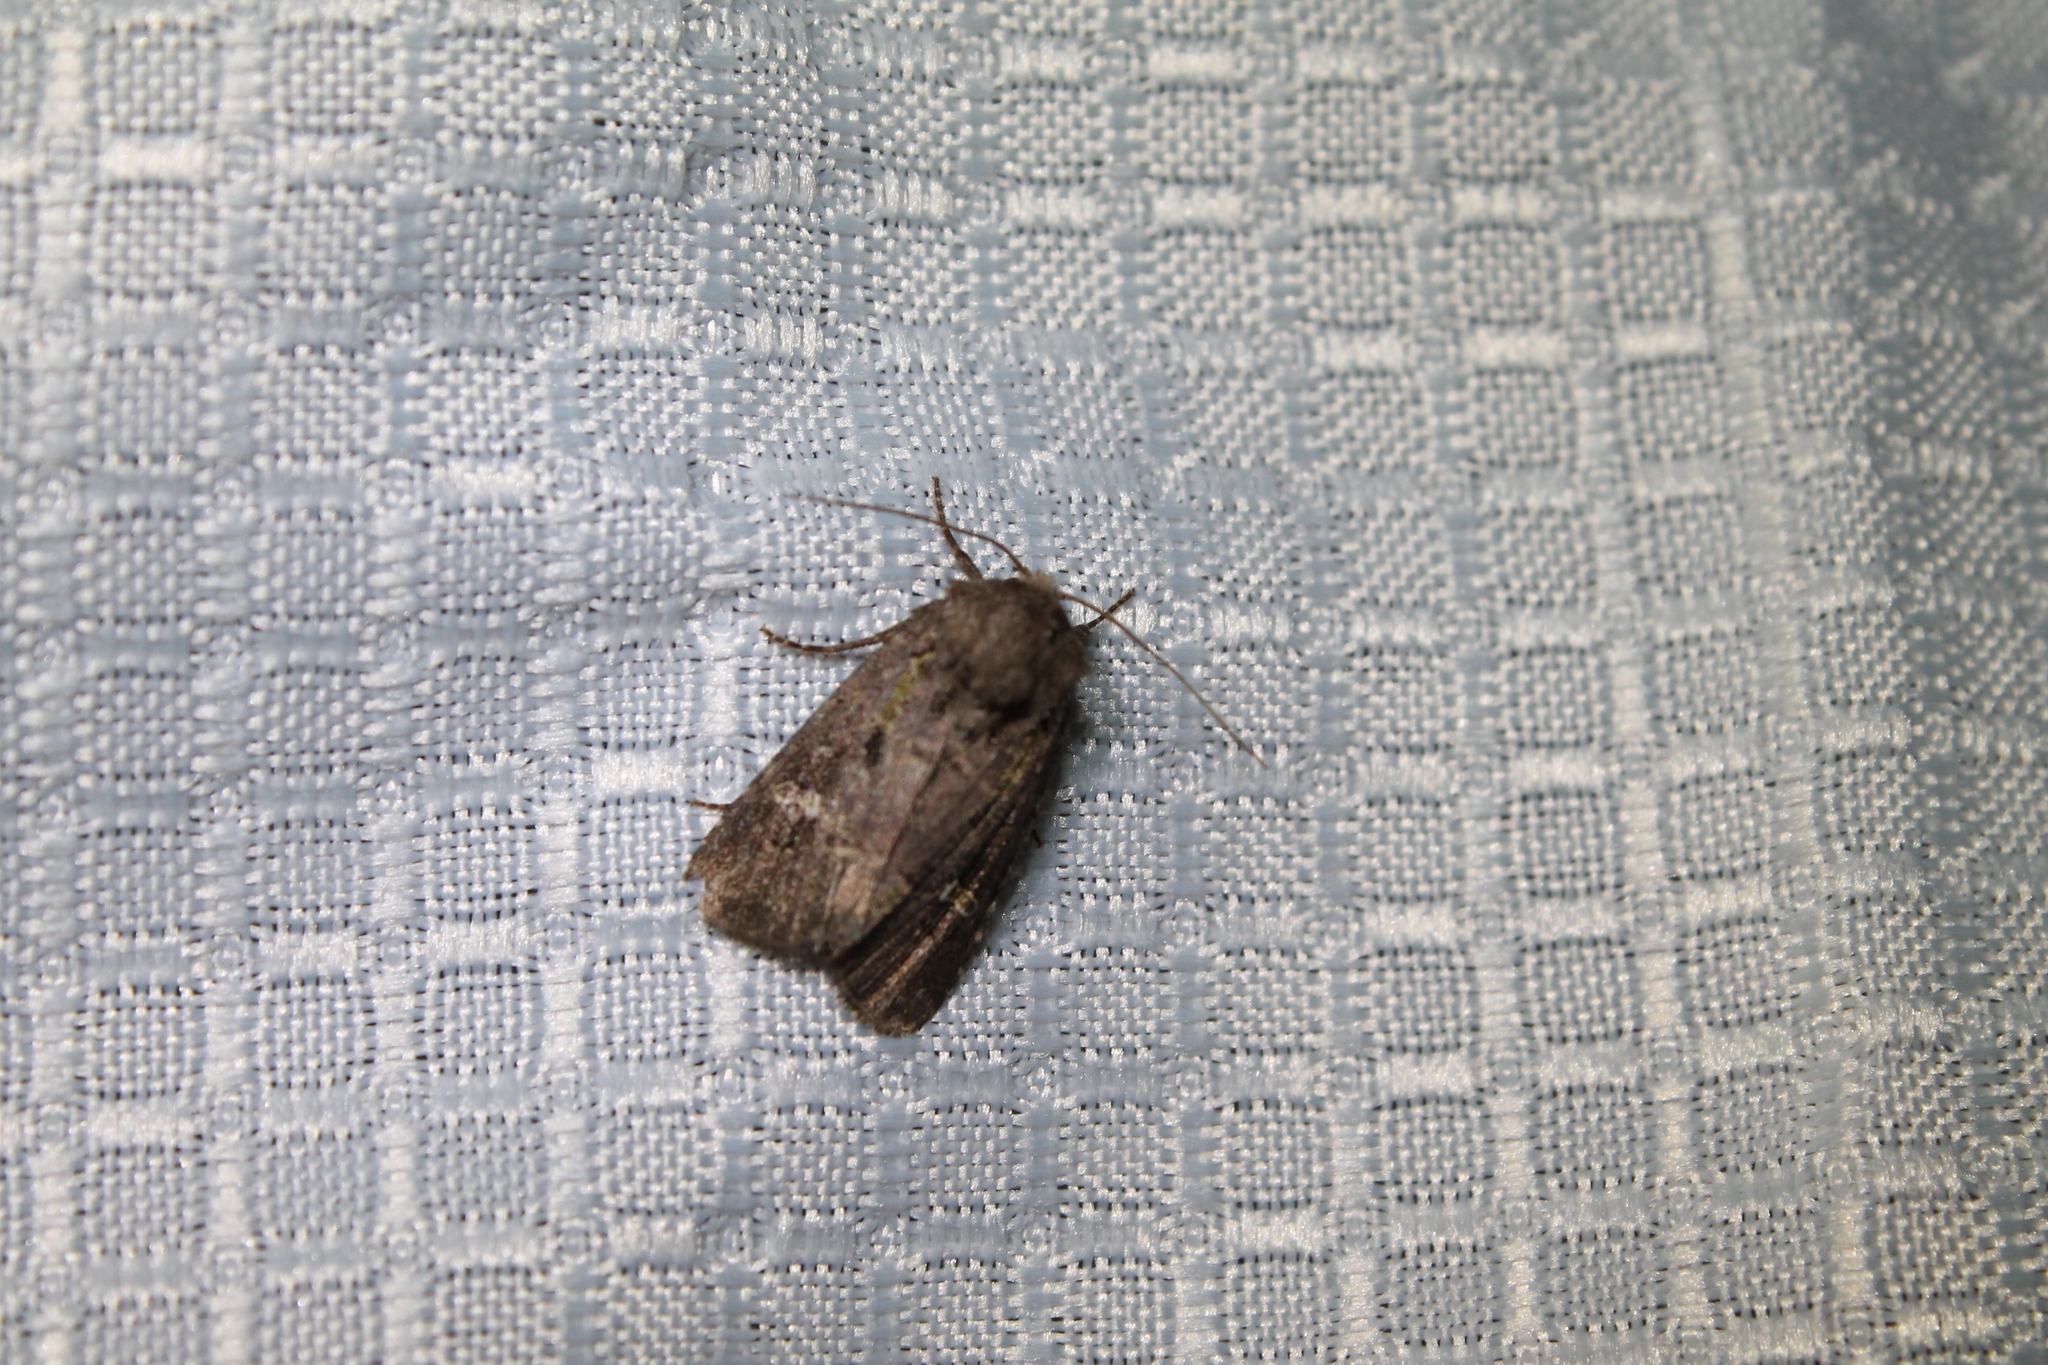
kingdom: Animalia
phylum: Arthropoda
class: Insecta
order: Lepidoptera
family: Noctuidae
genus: Lacinipolia
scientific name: Lacinipolia renigera
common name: Kidney-spotted minor
